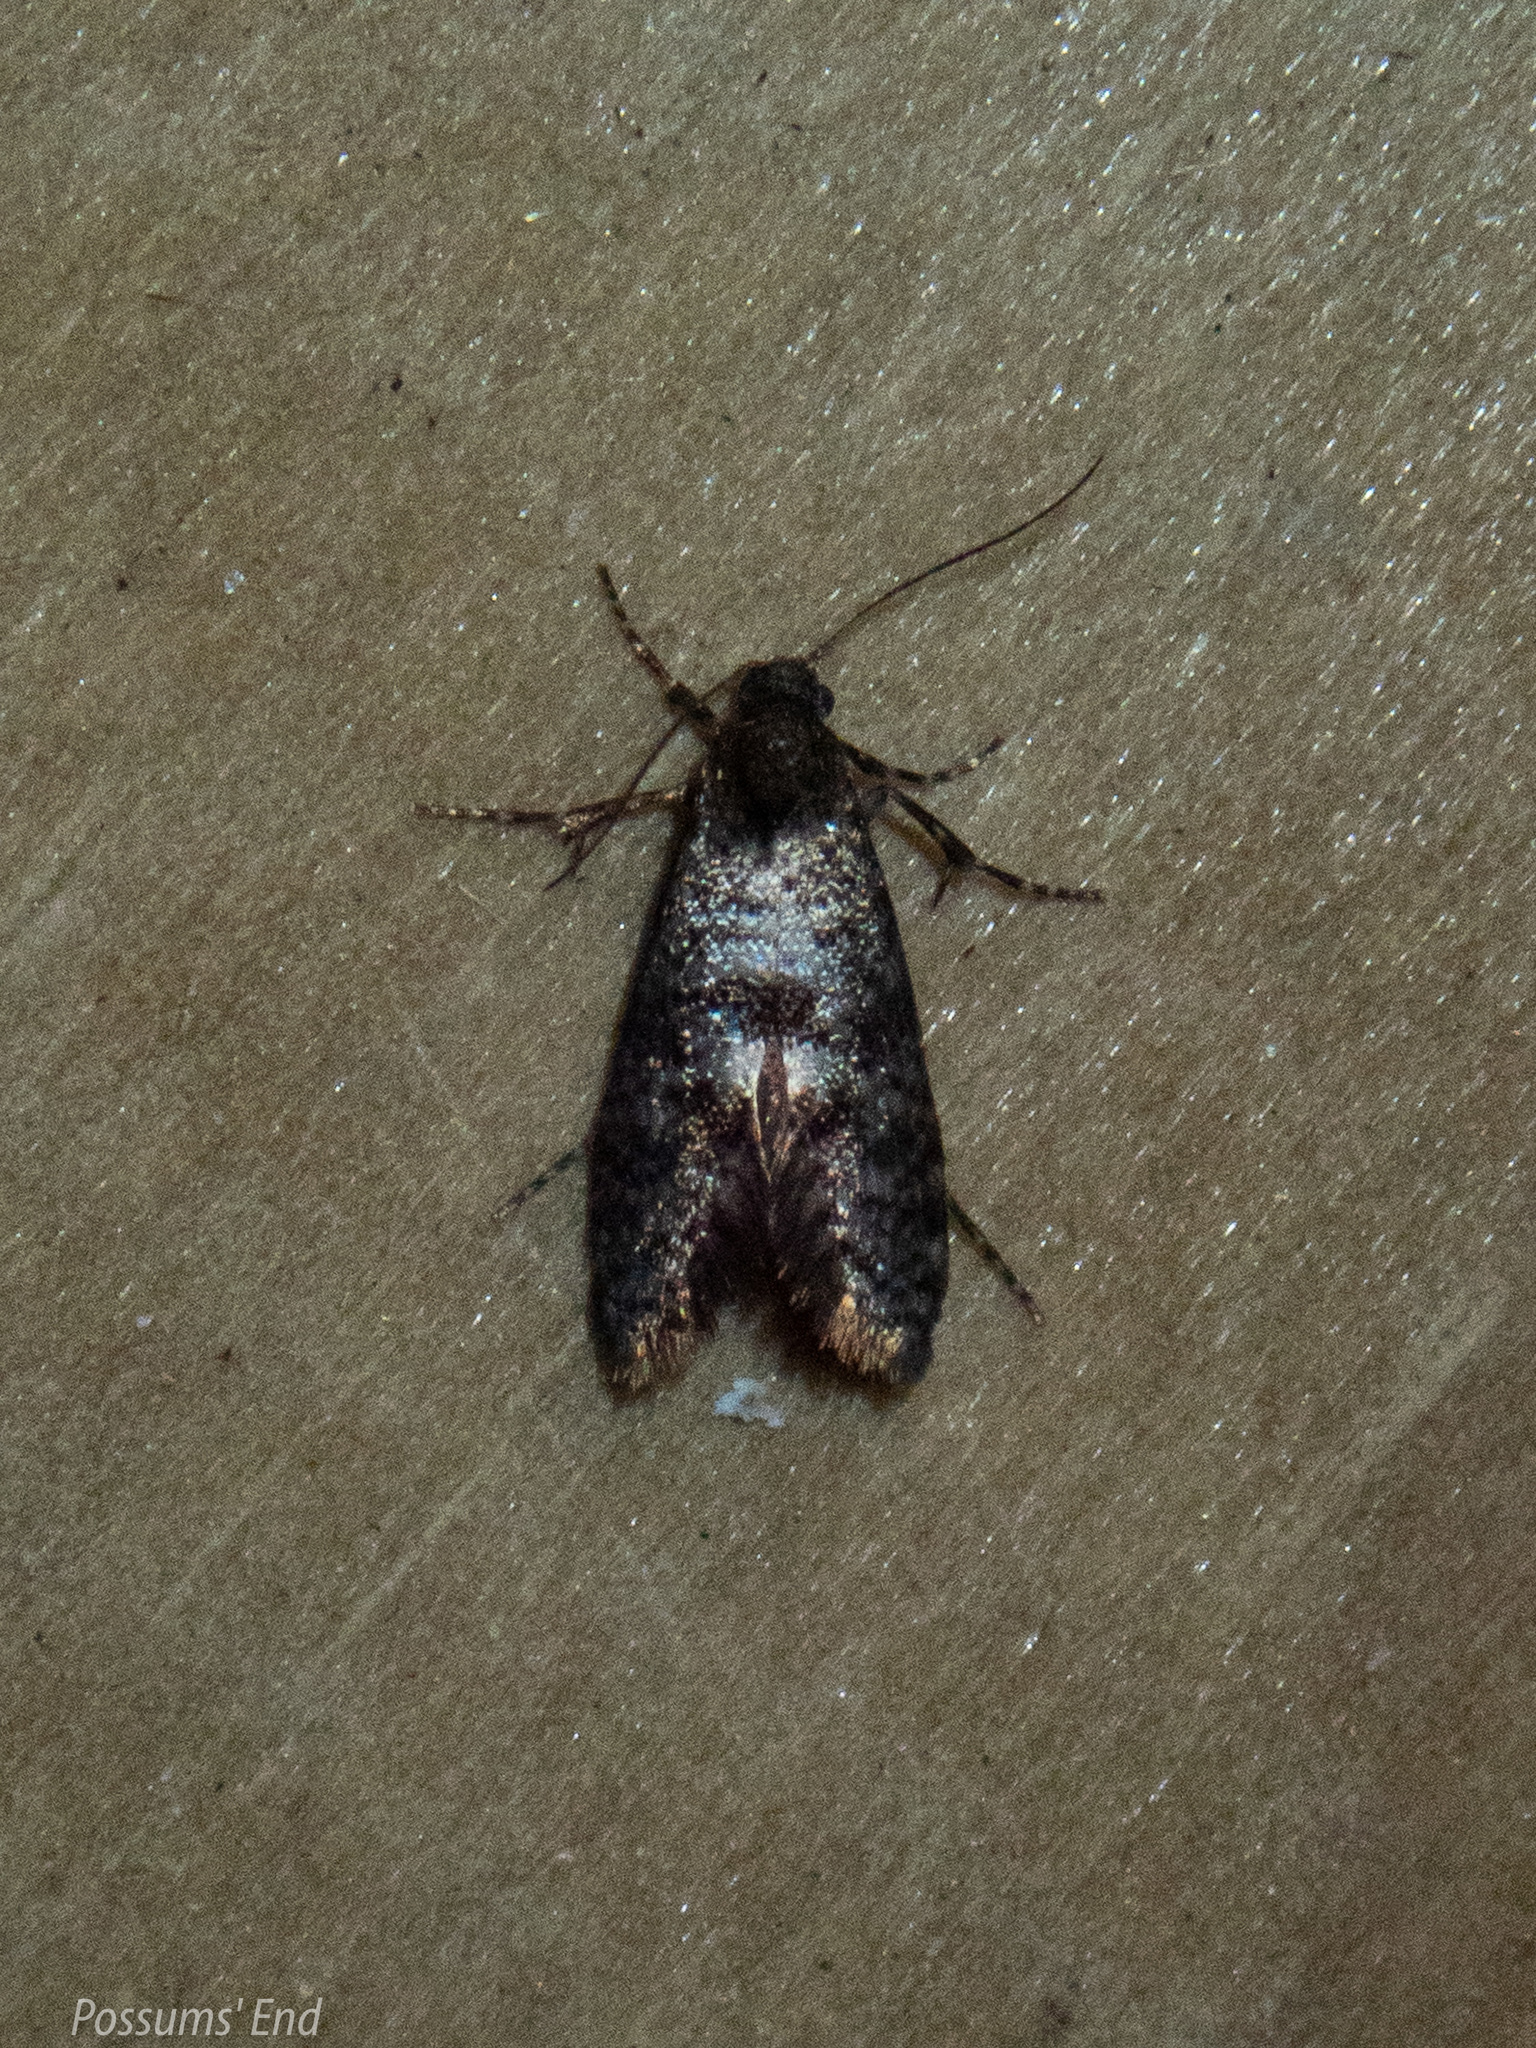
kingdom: Animalia
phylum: Arthropoda
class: Insecta
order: Lepidoptera
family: Psychidae
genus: Mallobathra
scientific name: Mallobathra perisseuta
